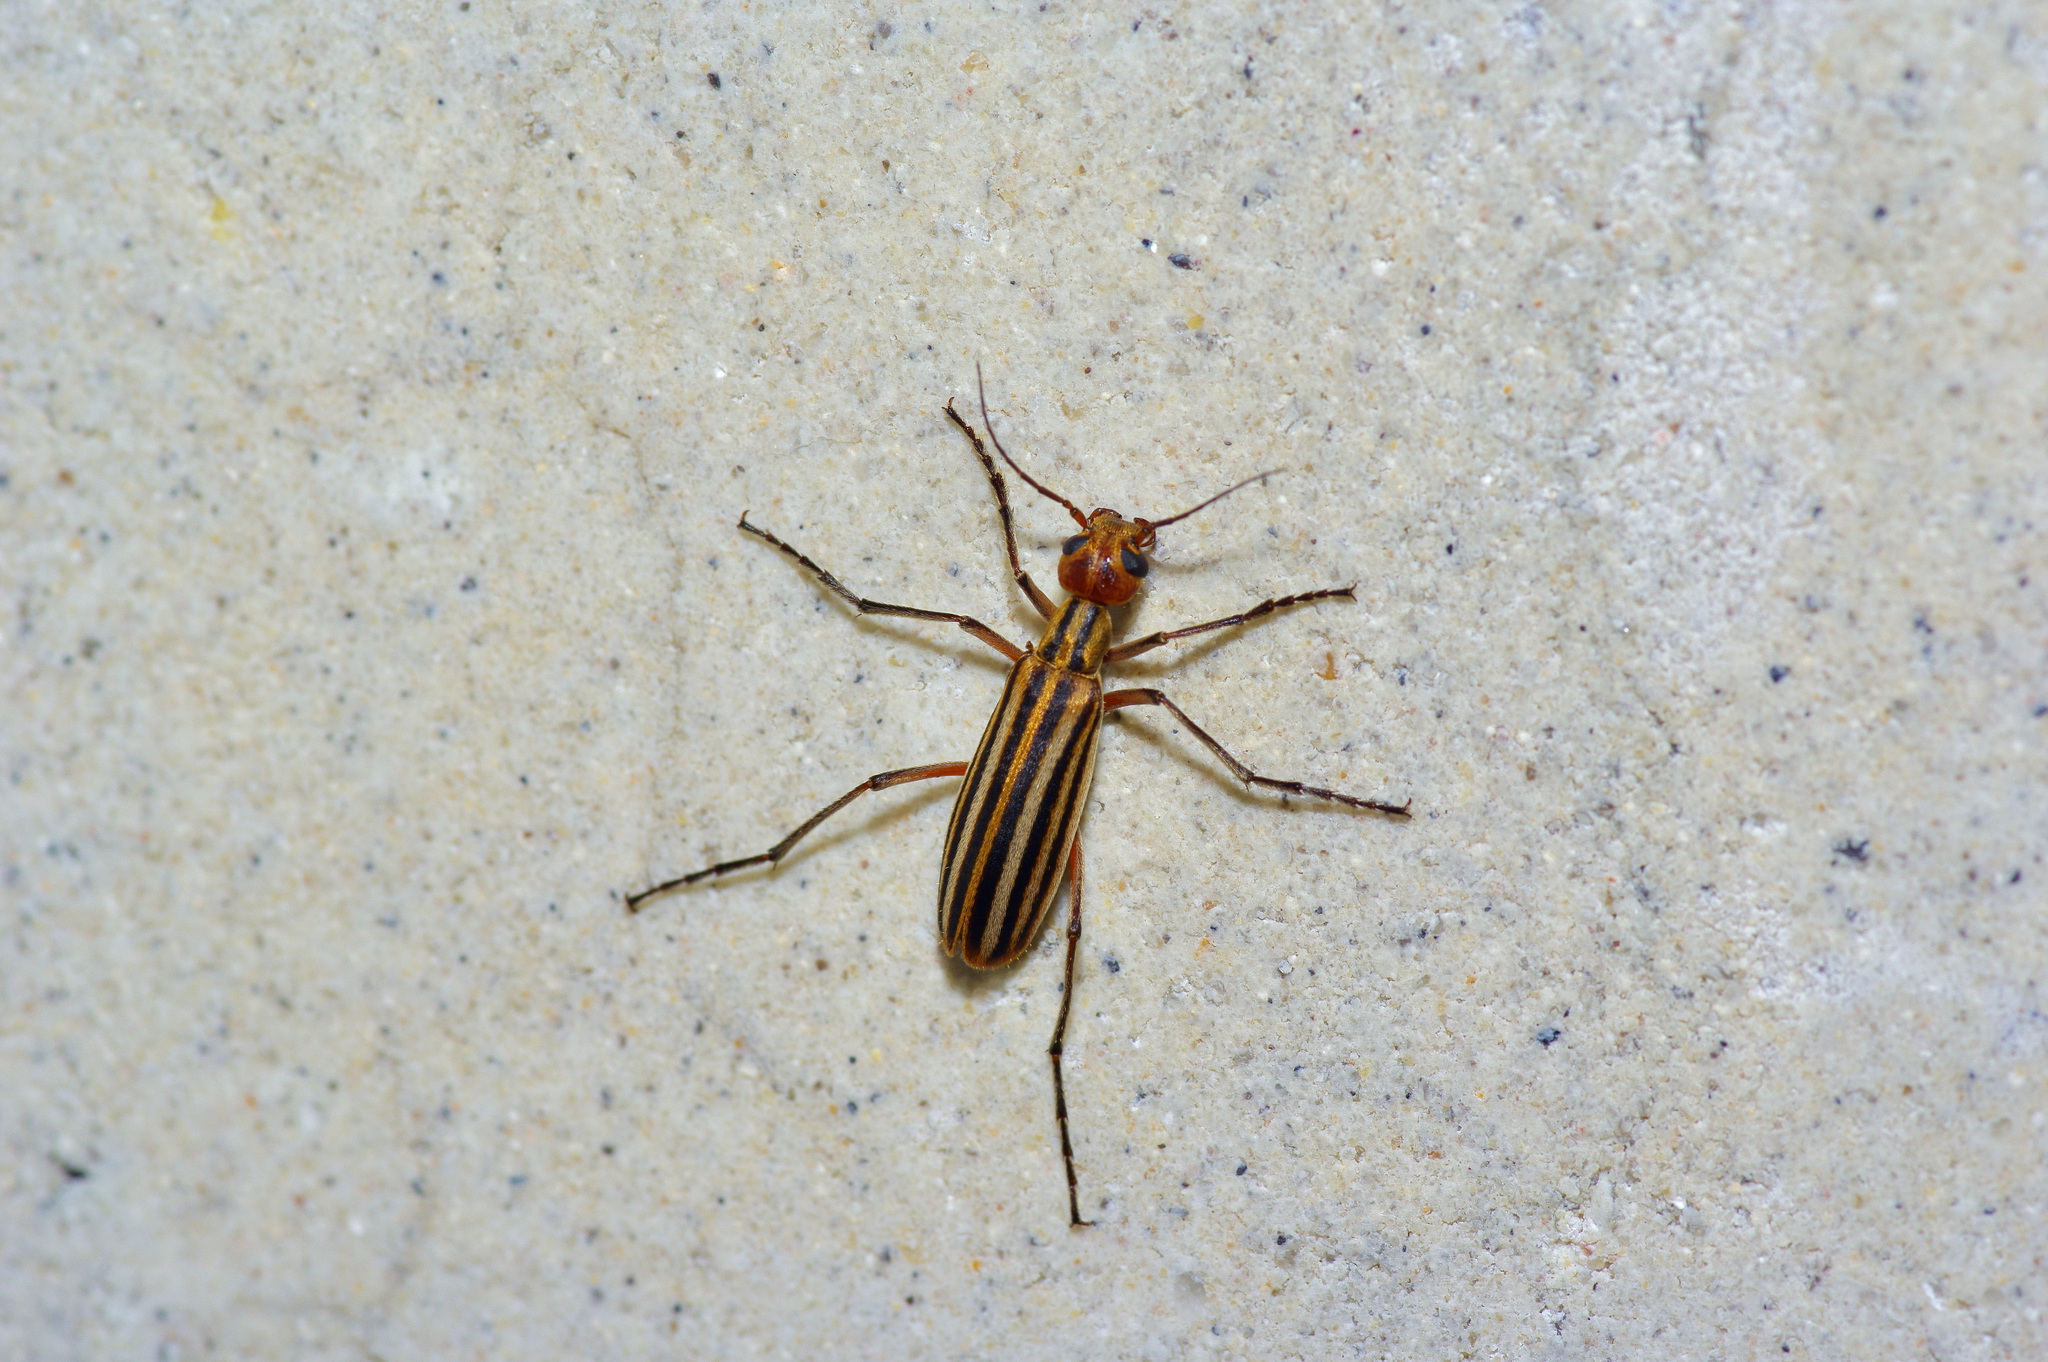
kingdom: Animalia
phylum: Arthropoda
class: Insecta
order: Coleoptera
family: Meloidae
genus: Epicauta
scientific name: Epicauta vittata
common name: Old-fashioned potato beetle
